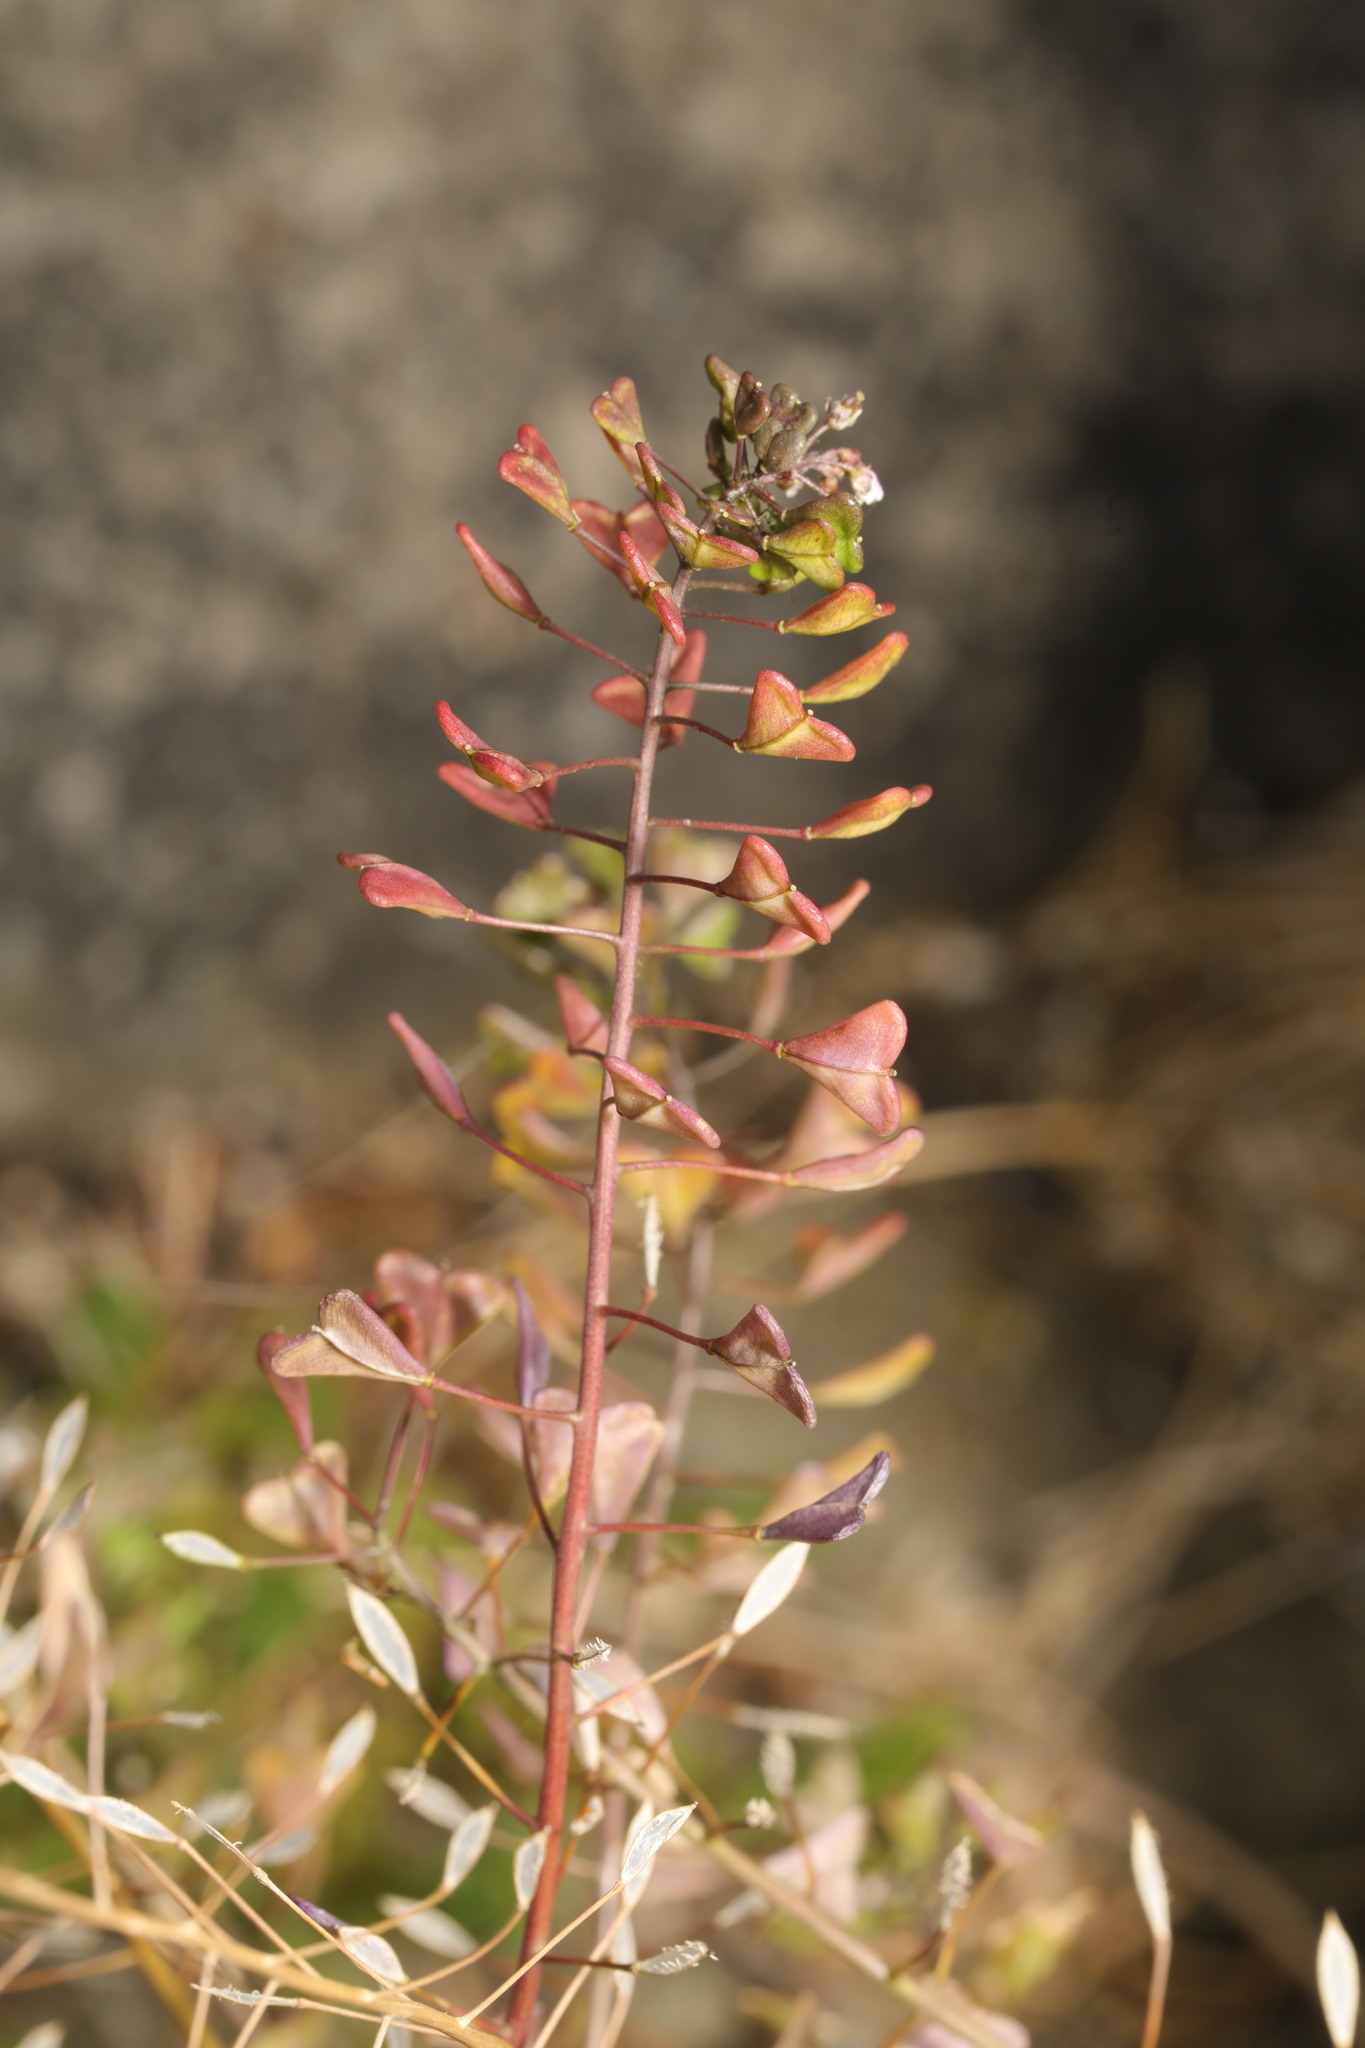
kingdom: Plantae
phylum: Tracheophyta
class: Magnoliopsida
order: Brassicales
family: Brassicaceae
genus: Capsella
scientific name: Capsella bursa-pastoris
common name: Shepherd's purse
